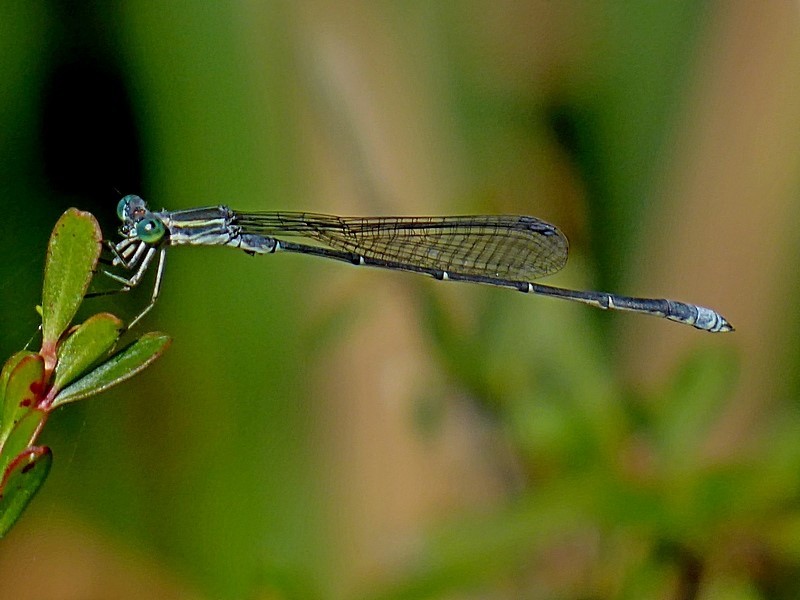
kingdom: Animalia
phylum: Arthropoda
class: Insecta
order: Odonata
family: Isostictidae
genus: Rhadinosticta
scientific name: Rhadinosticta simplex
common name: Powdered wiretail
